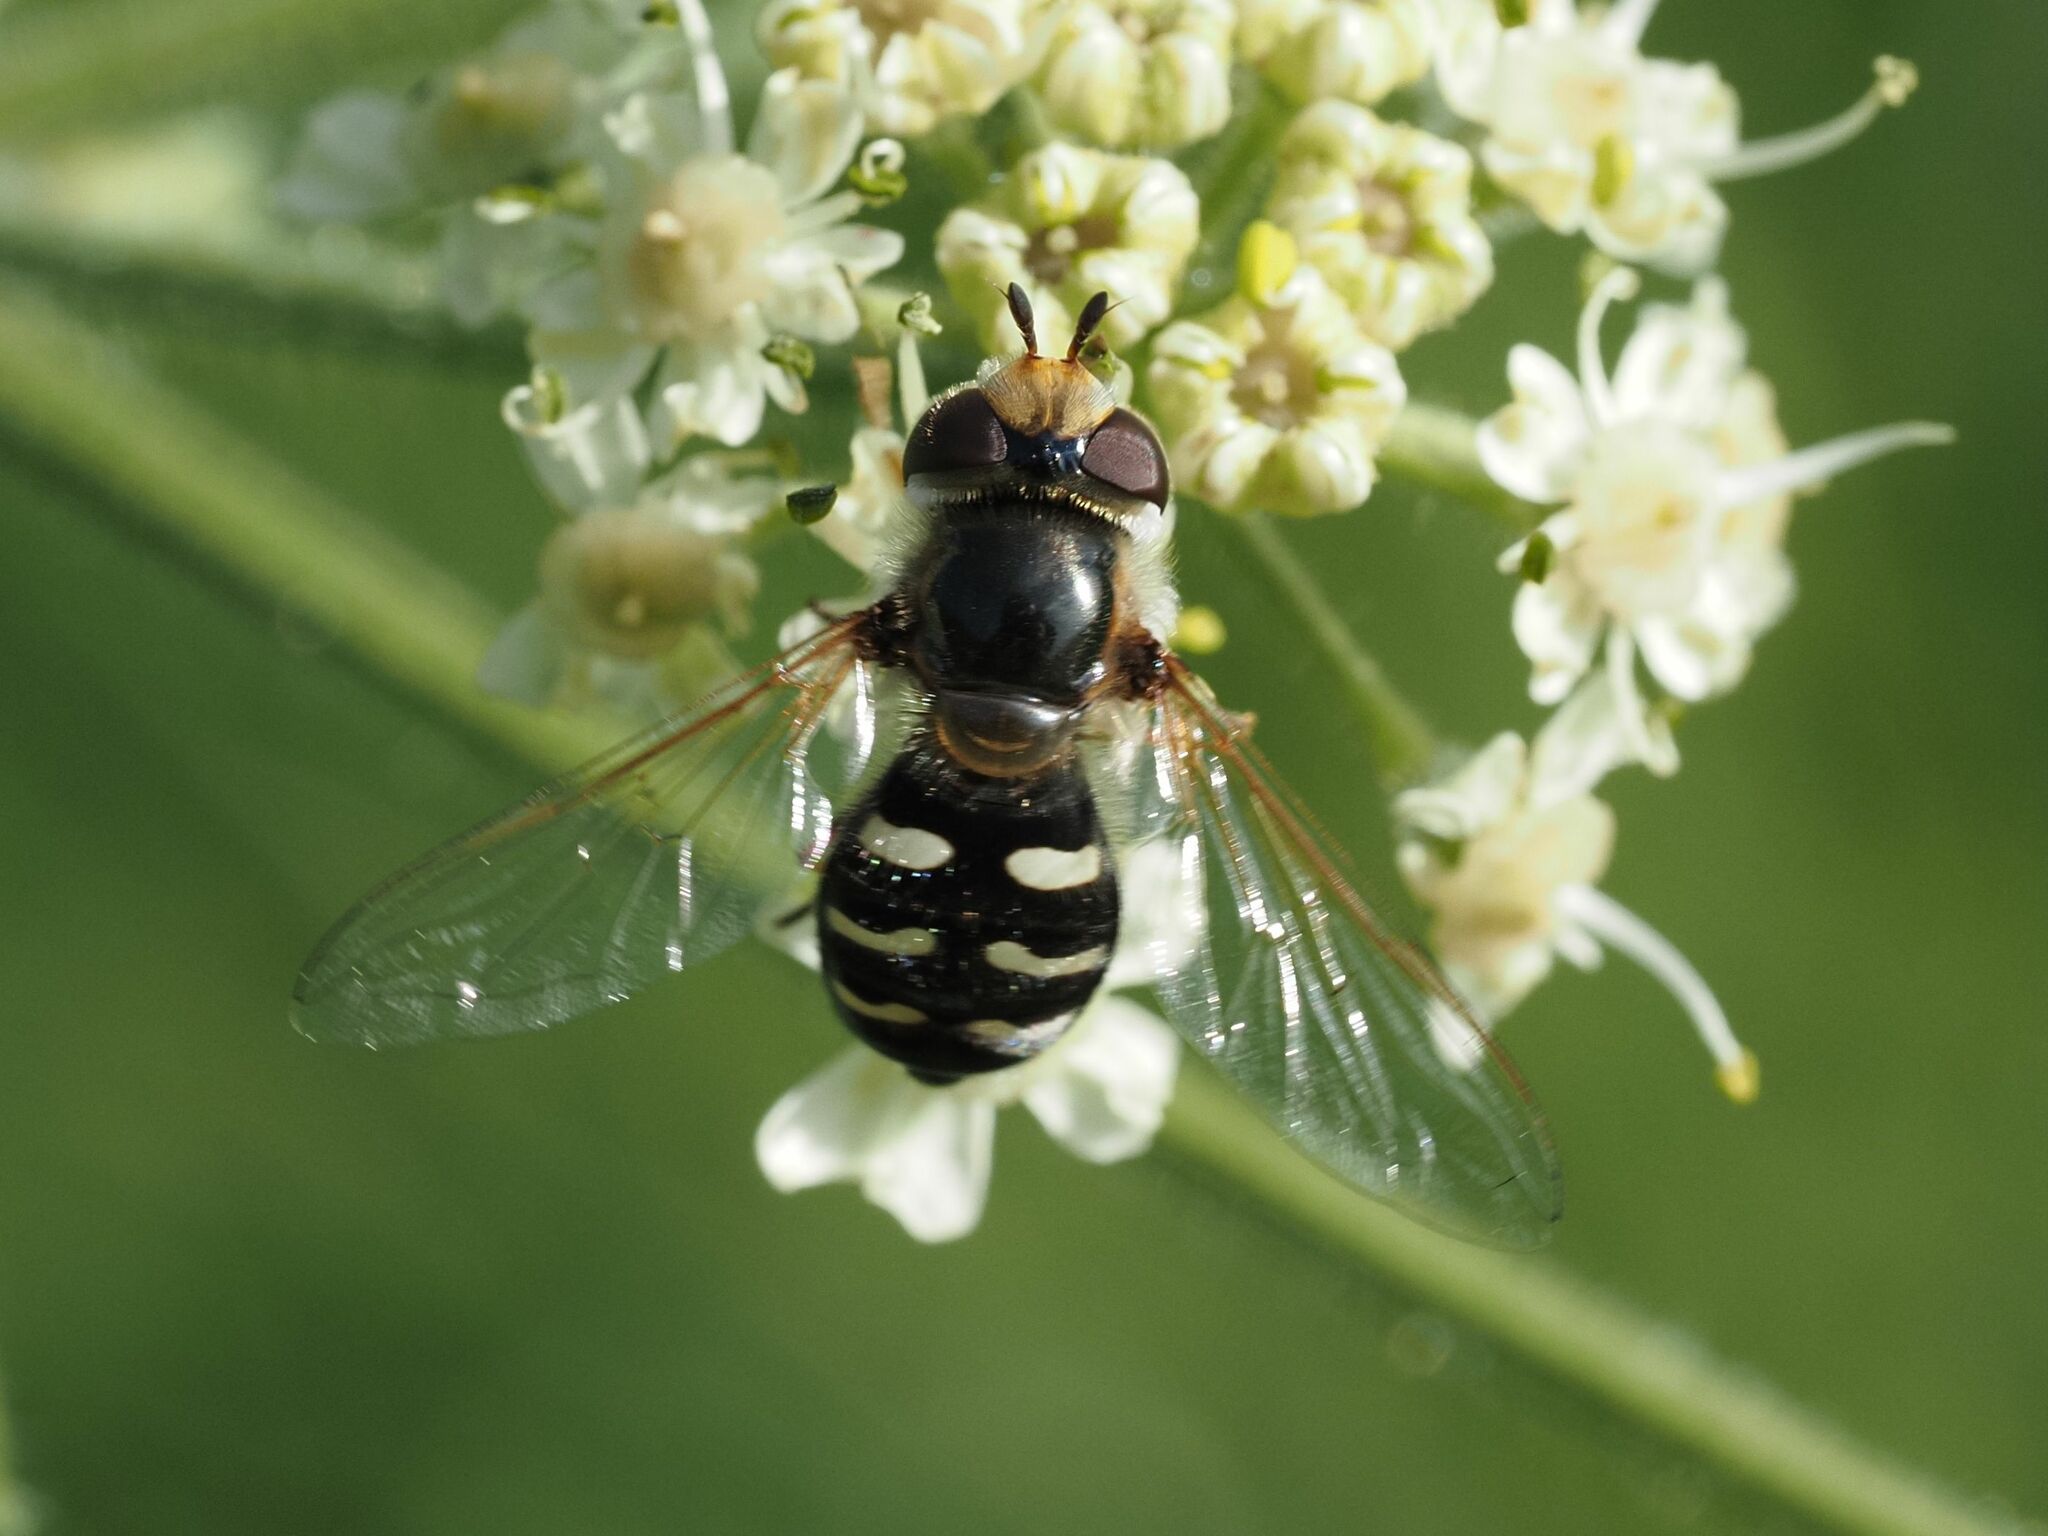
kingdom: Animalia
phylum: Arthropoda
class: Insecta
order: Diptera
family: Syrphidae
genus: Scaeva
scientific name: Scaeva pyrastri
